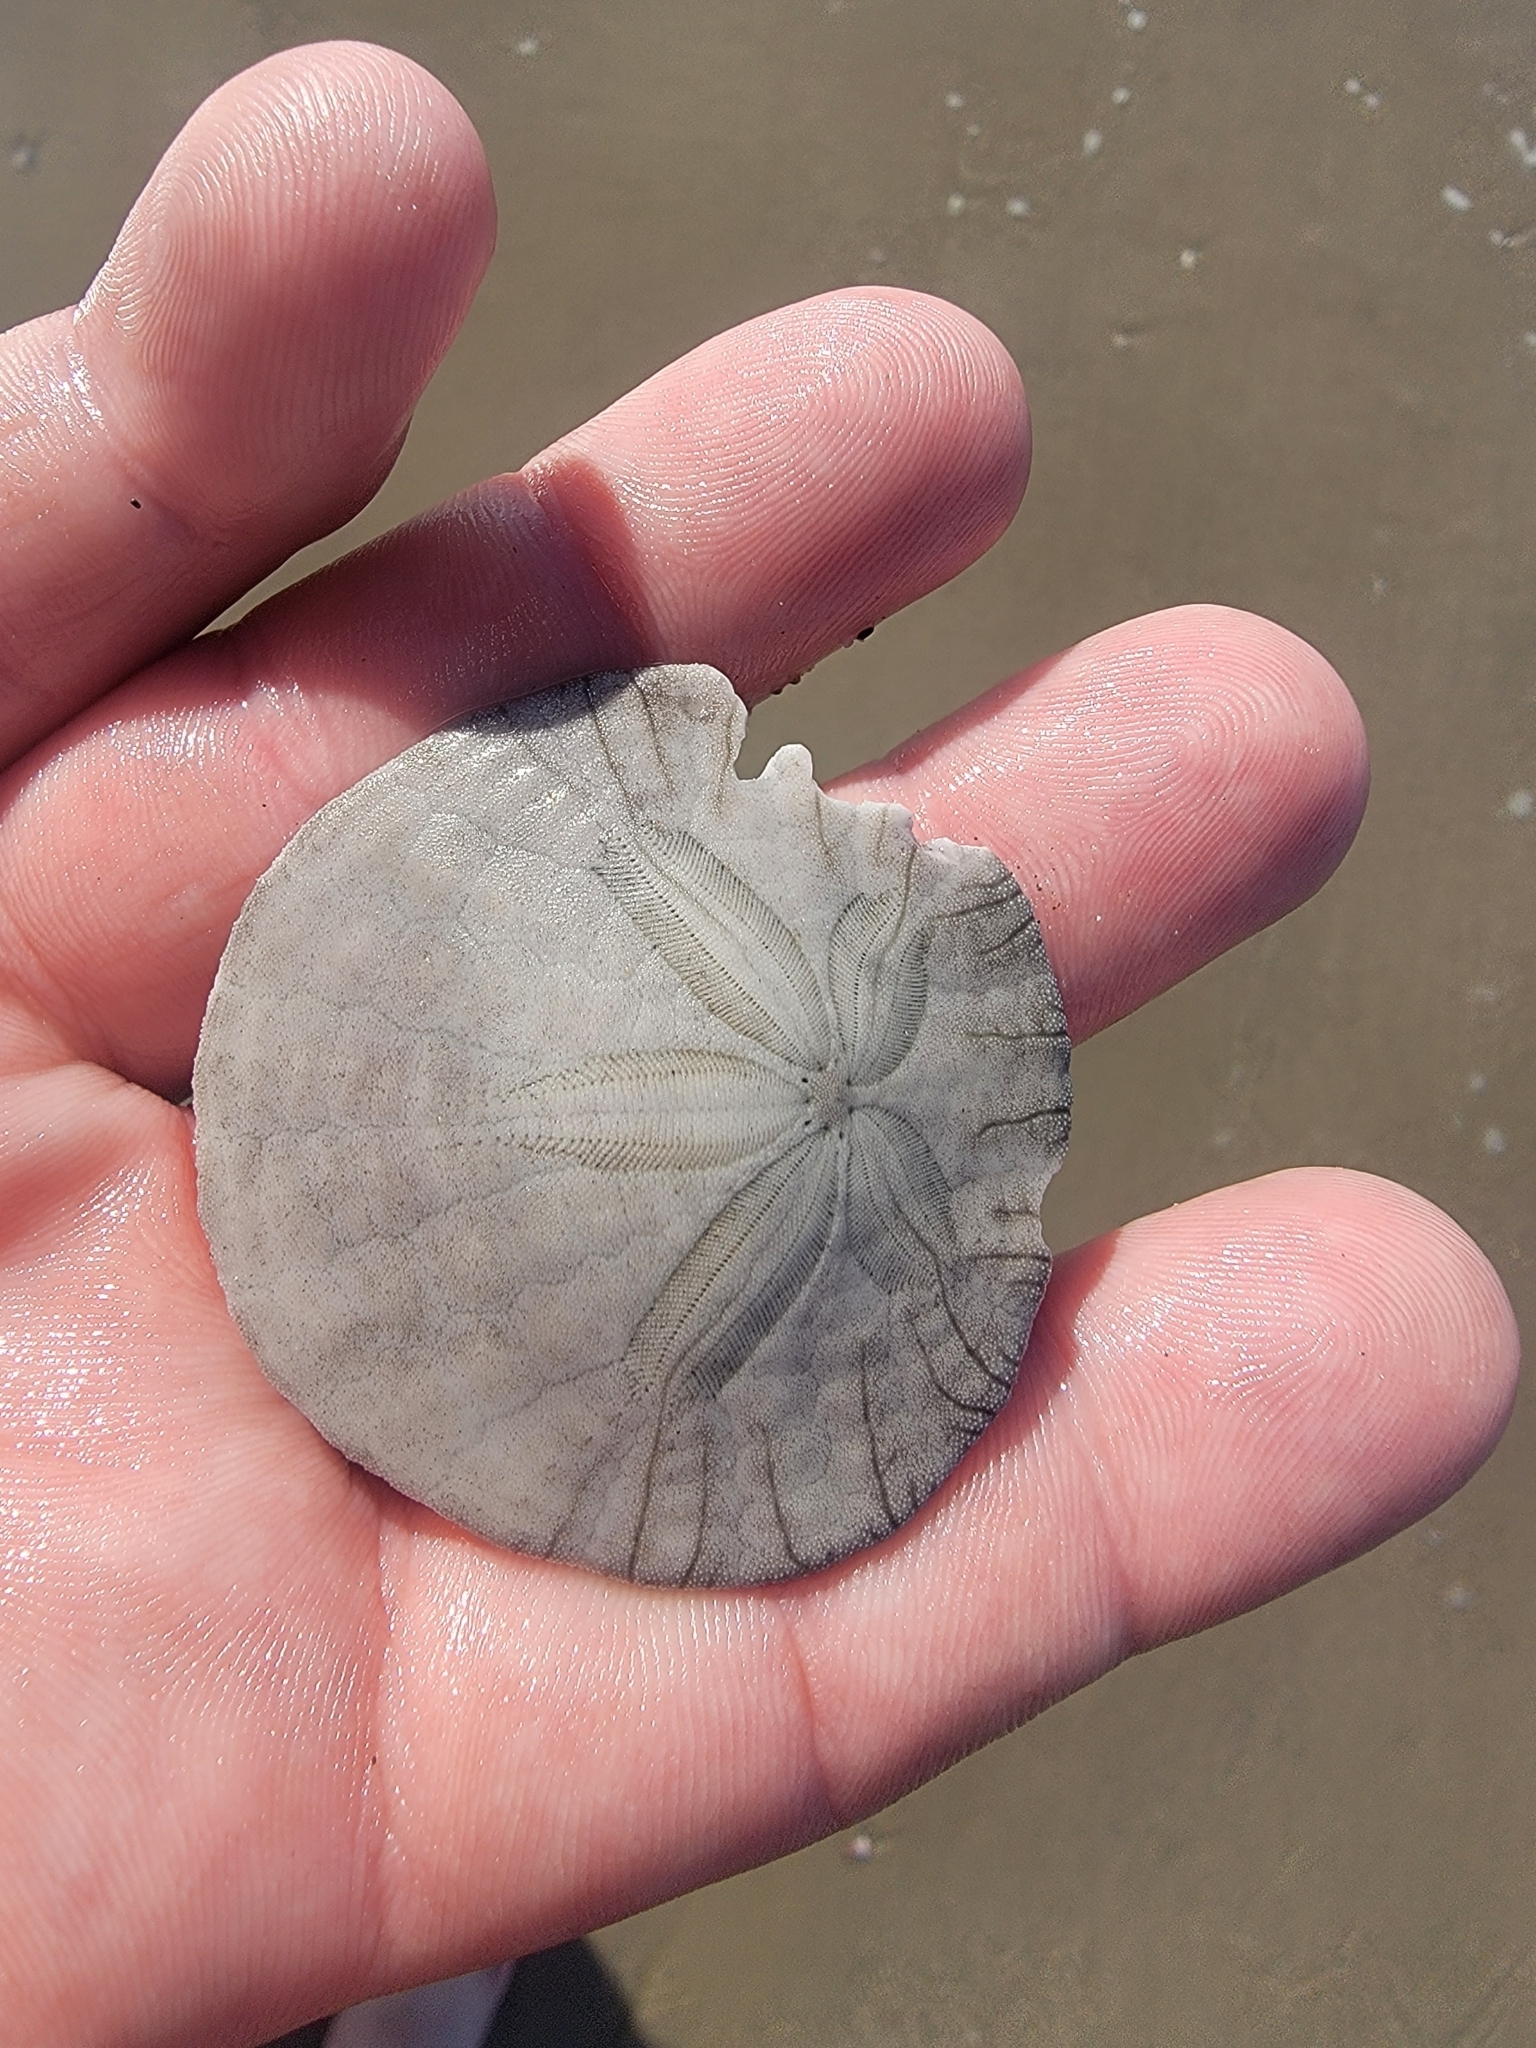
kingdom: Animalia
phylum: Echinodermata
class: Echinoidea
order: Echinolampadacea
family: Dendrasteridae
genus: Dendraster
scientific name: Dendraster excentricus
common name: Eccentric sand dollar sea urchin
